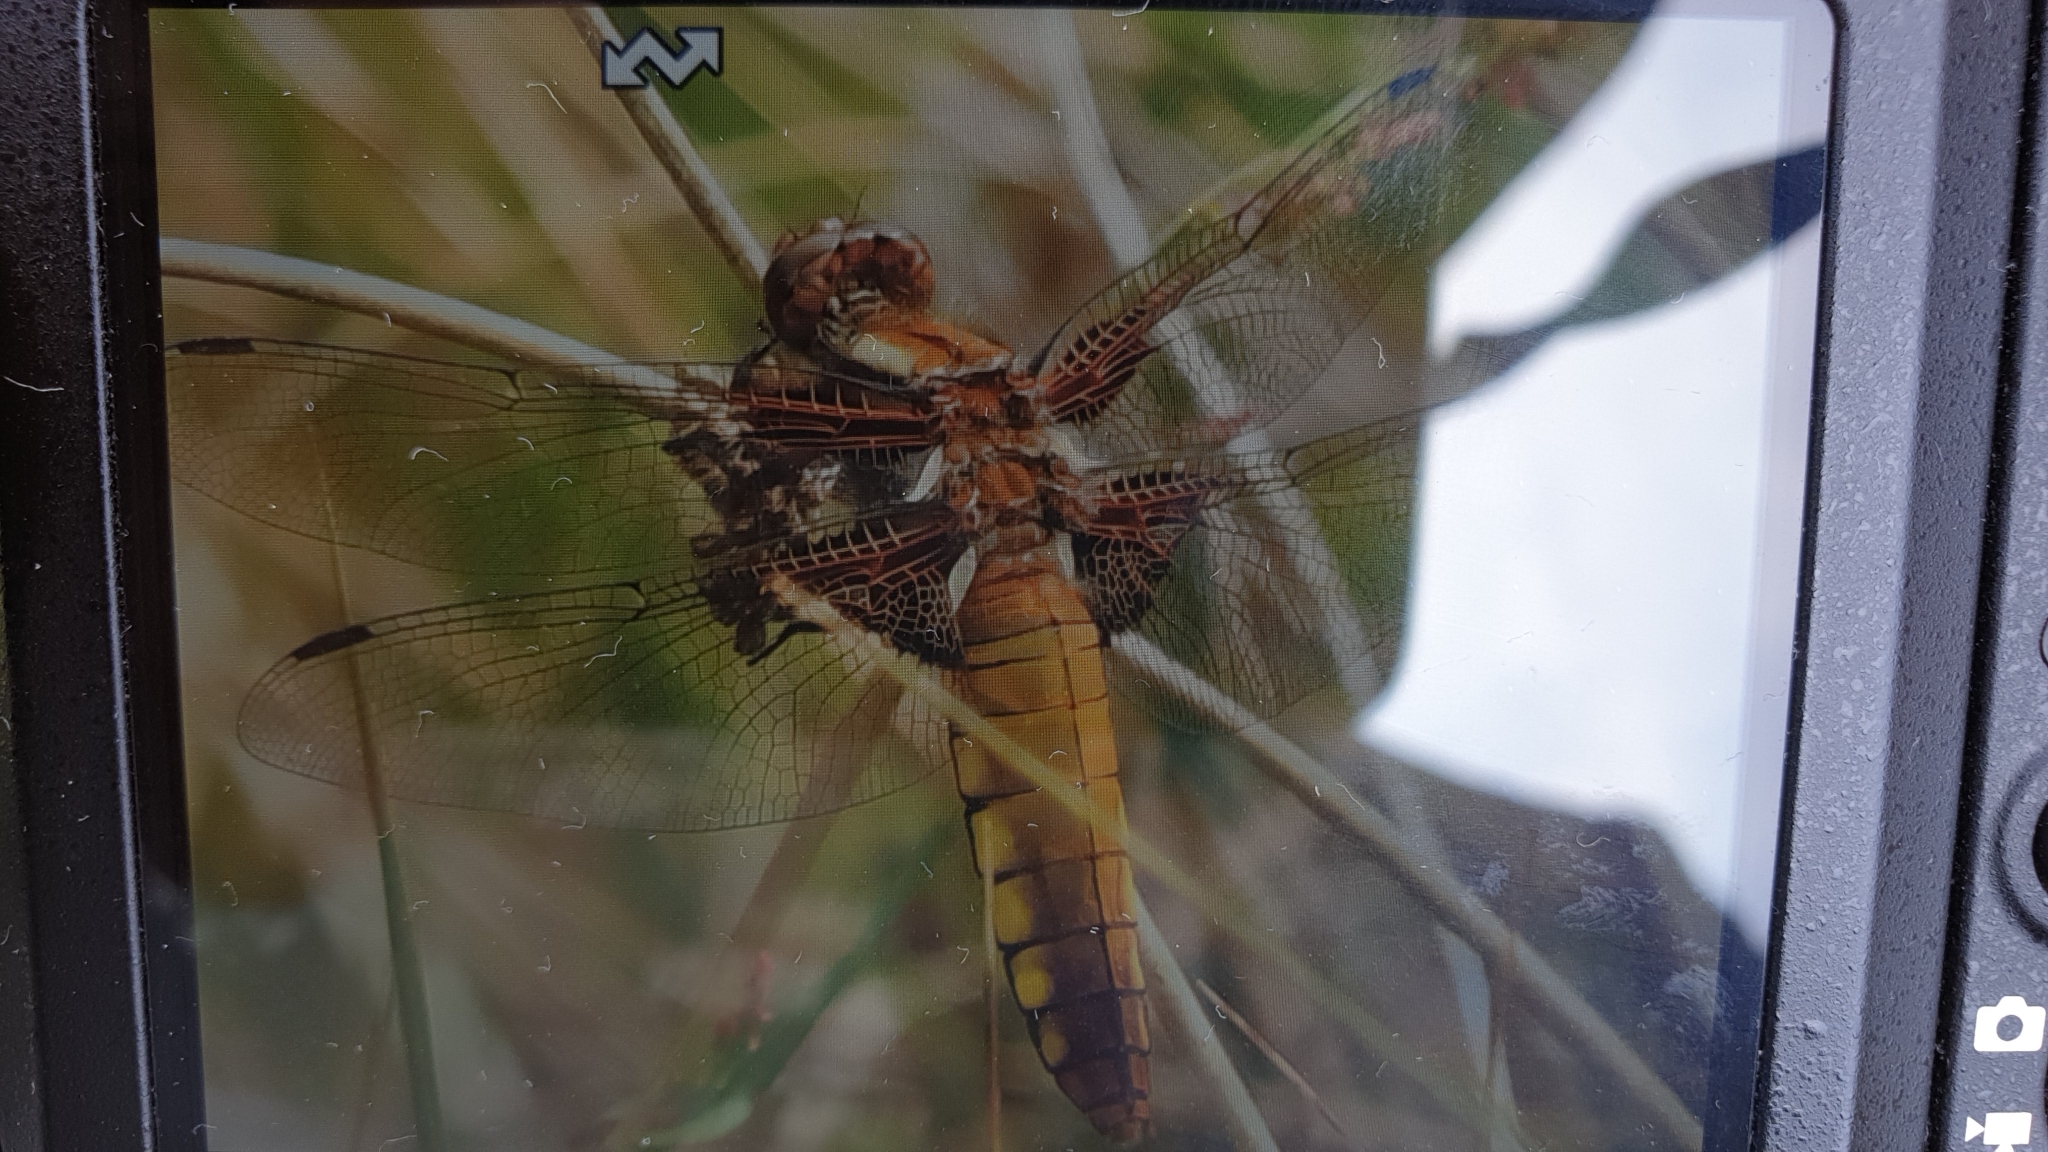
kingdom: Animalia
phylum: Arthropoda
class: Insecta
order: Odonata
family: Libellulidae
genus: Libellula
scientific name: Libellula depressa
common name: Broad-bodied chaser
